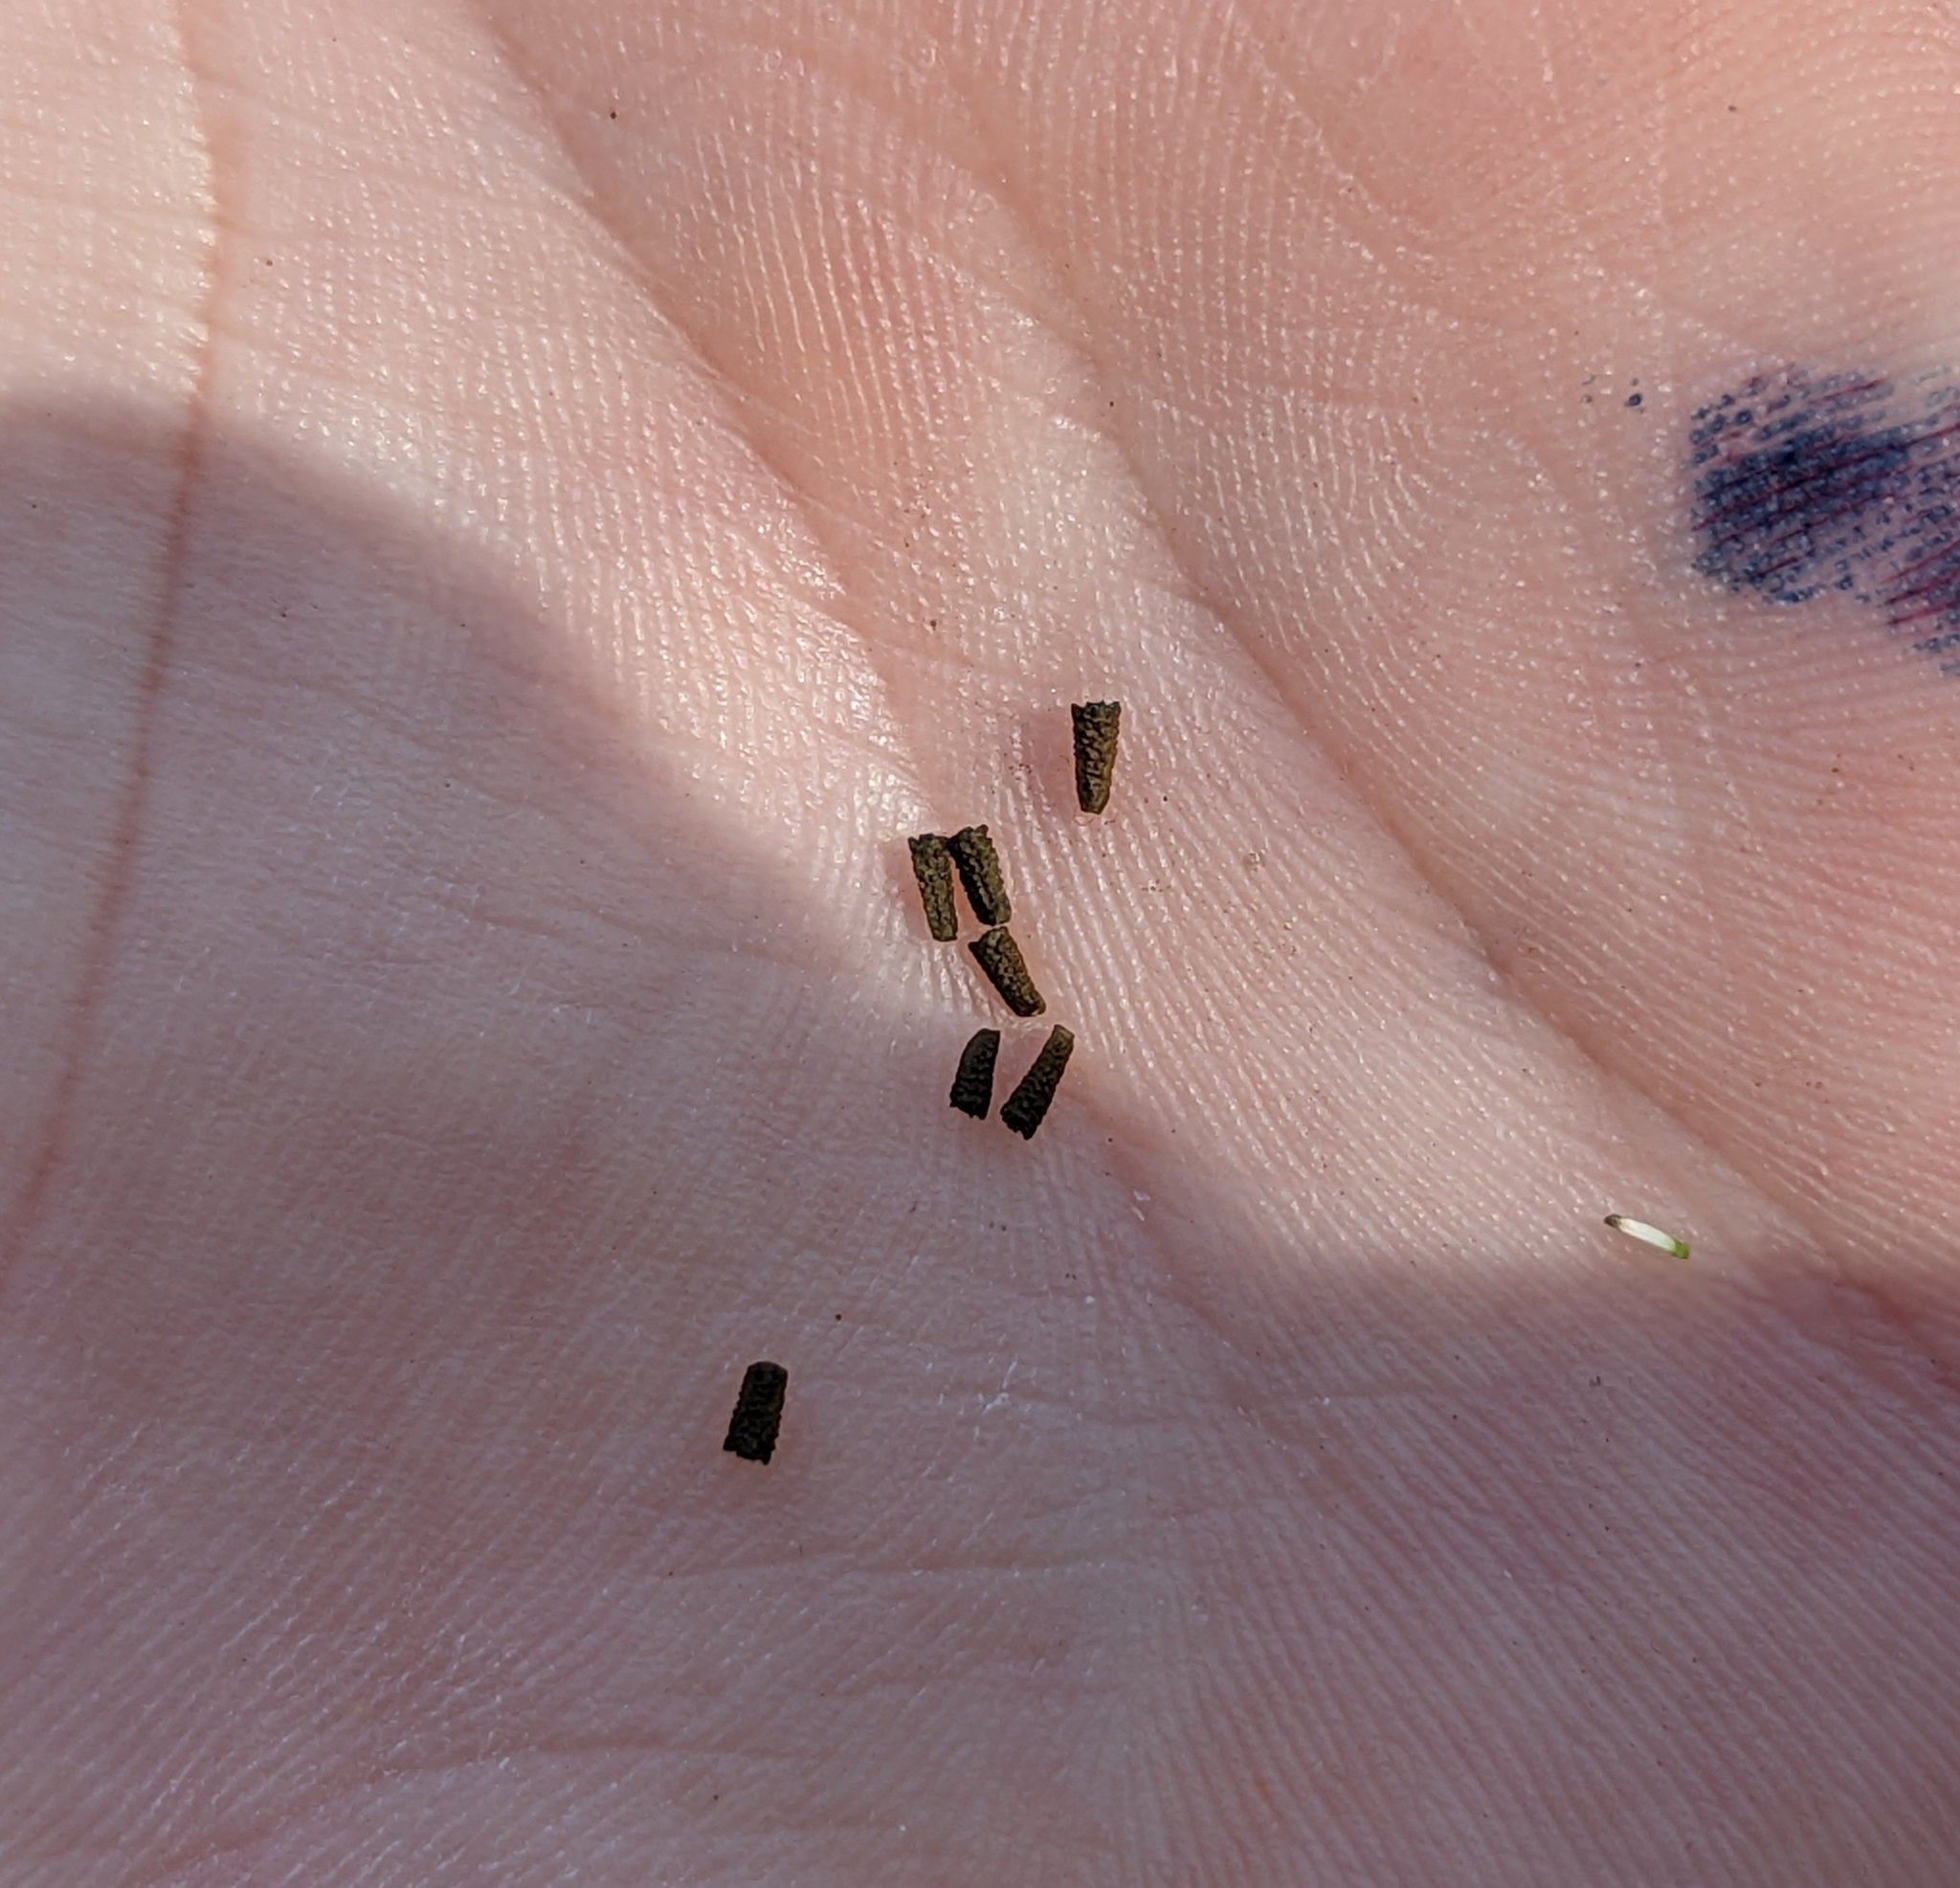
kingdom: Plantae
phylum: Tracheophyta
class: Magnoliopsida
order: Asterales
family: Asteraceae
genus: Eclipta
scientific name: Eclipta prostrata
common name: False daisy
